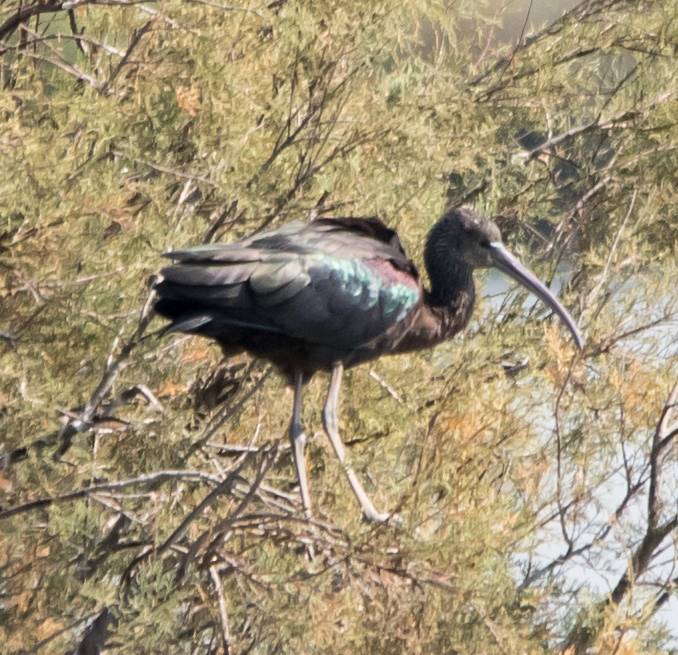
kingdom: Animalia
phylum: Chordata
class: Aves
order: Pelecaniformes
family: Threskiornithidae
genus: Plegadis
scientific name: Plegadis falcinellus
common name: Glossy ibis
